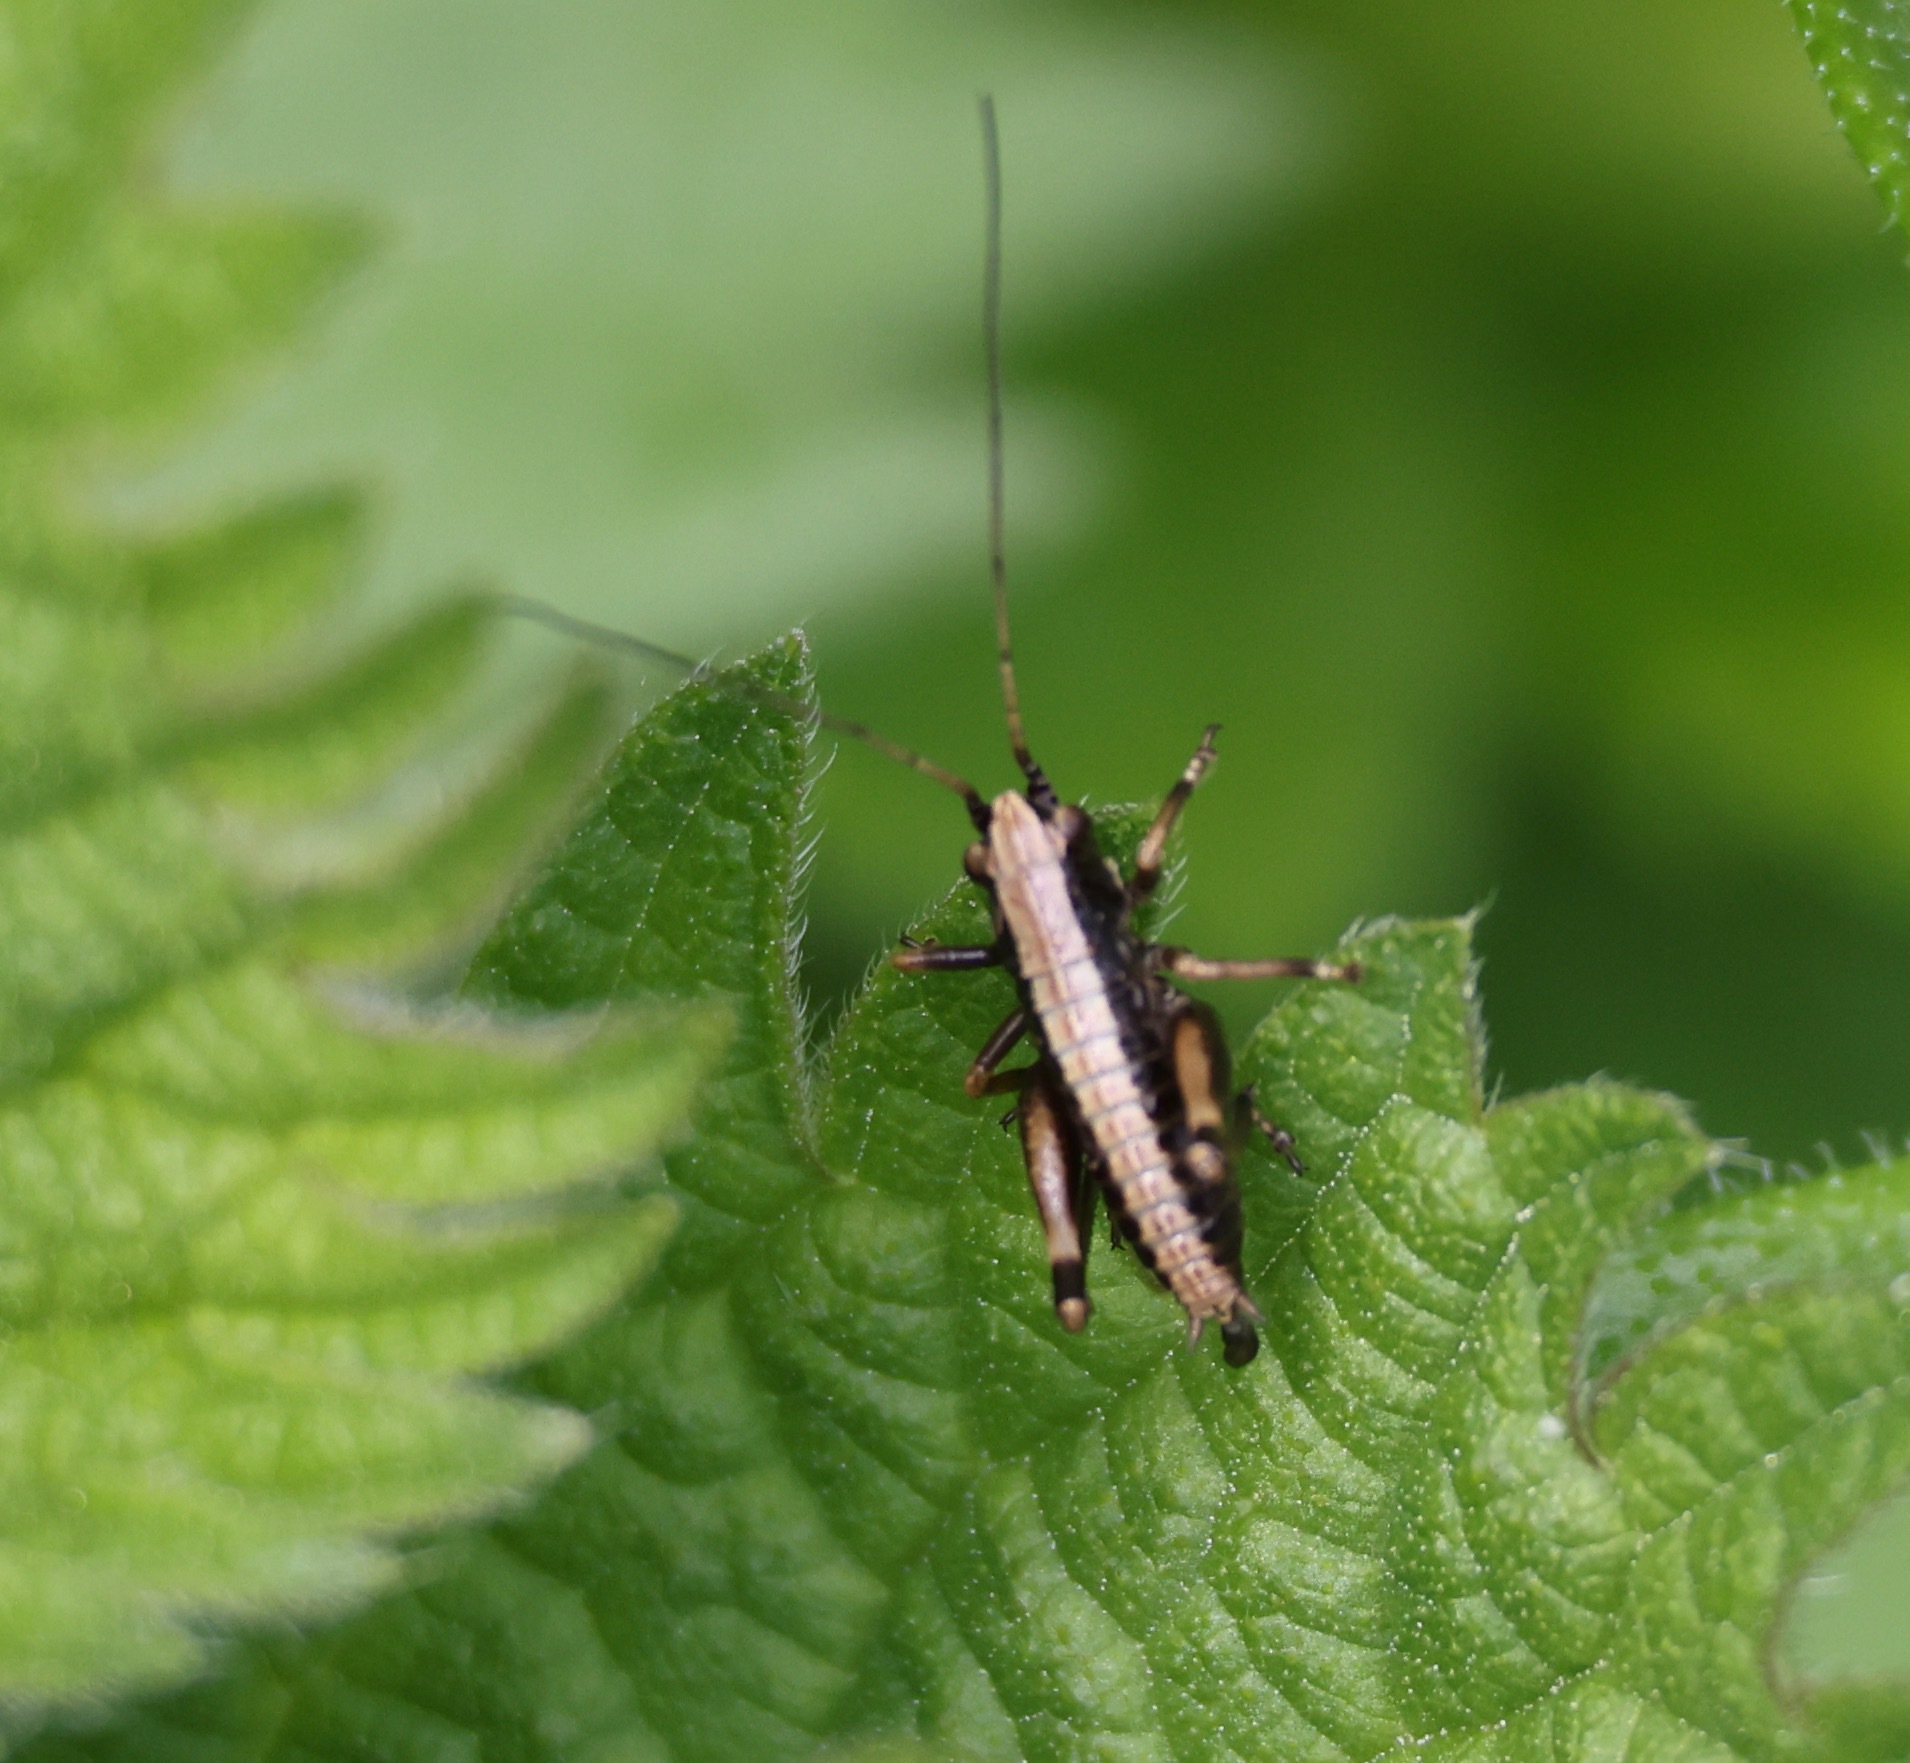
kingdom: Animalia
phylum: Arthropoda
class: Insecta
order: Orthoptera
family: Tettigoniidae
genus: Pholidoptera
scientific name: Pholidoptera griseoaptera
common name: Dark bush-cricket
